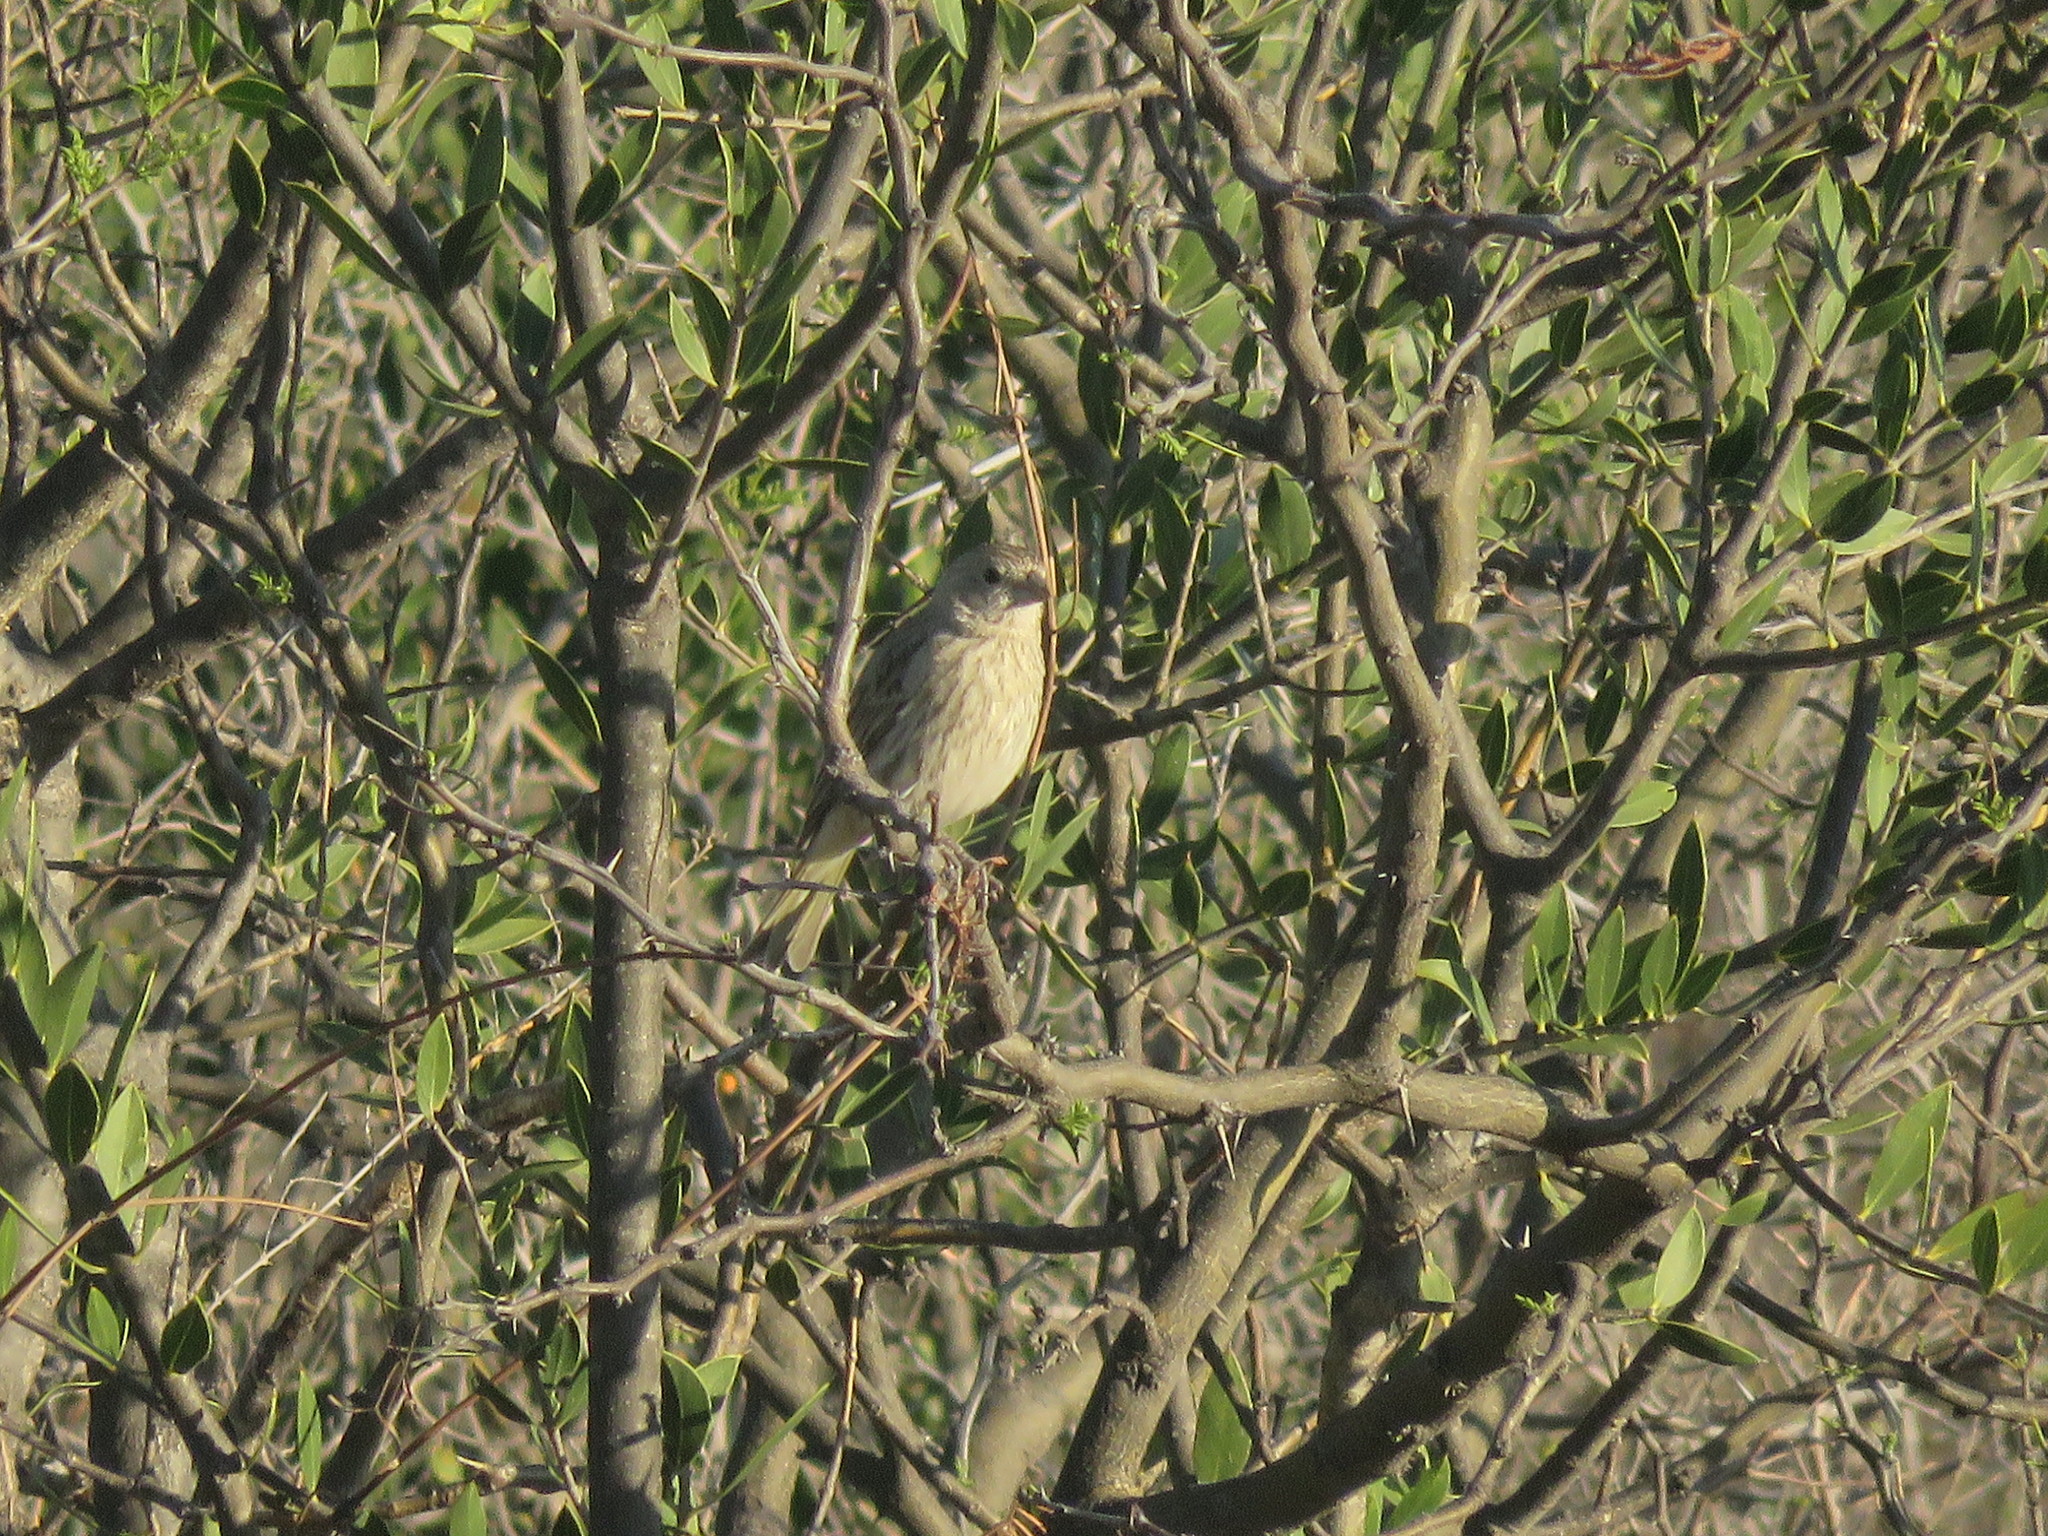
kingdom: Animalia
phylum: Chordata
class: Aves
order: Passeriformes
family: Thraupidae
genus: Sicalis
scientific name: Sicalis flaveola
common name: Saffron finch
